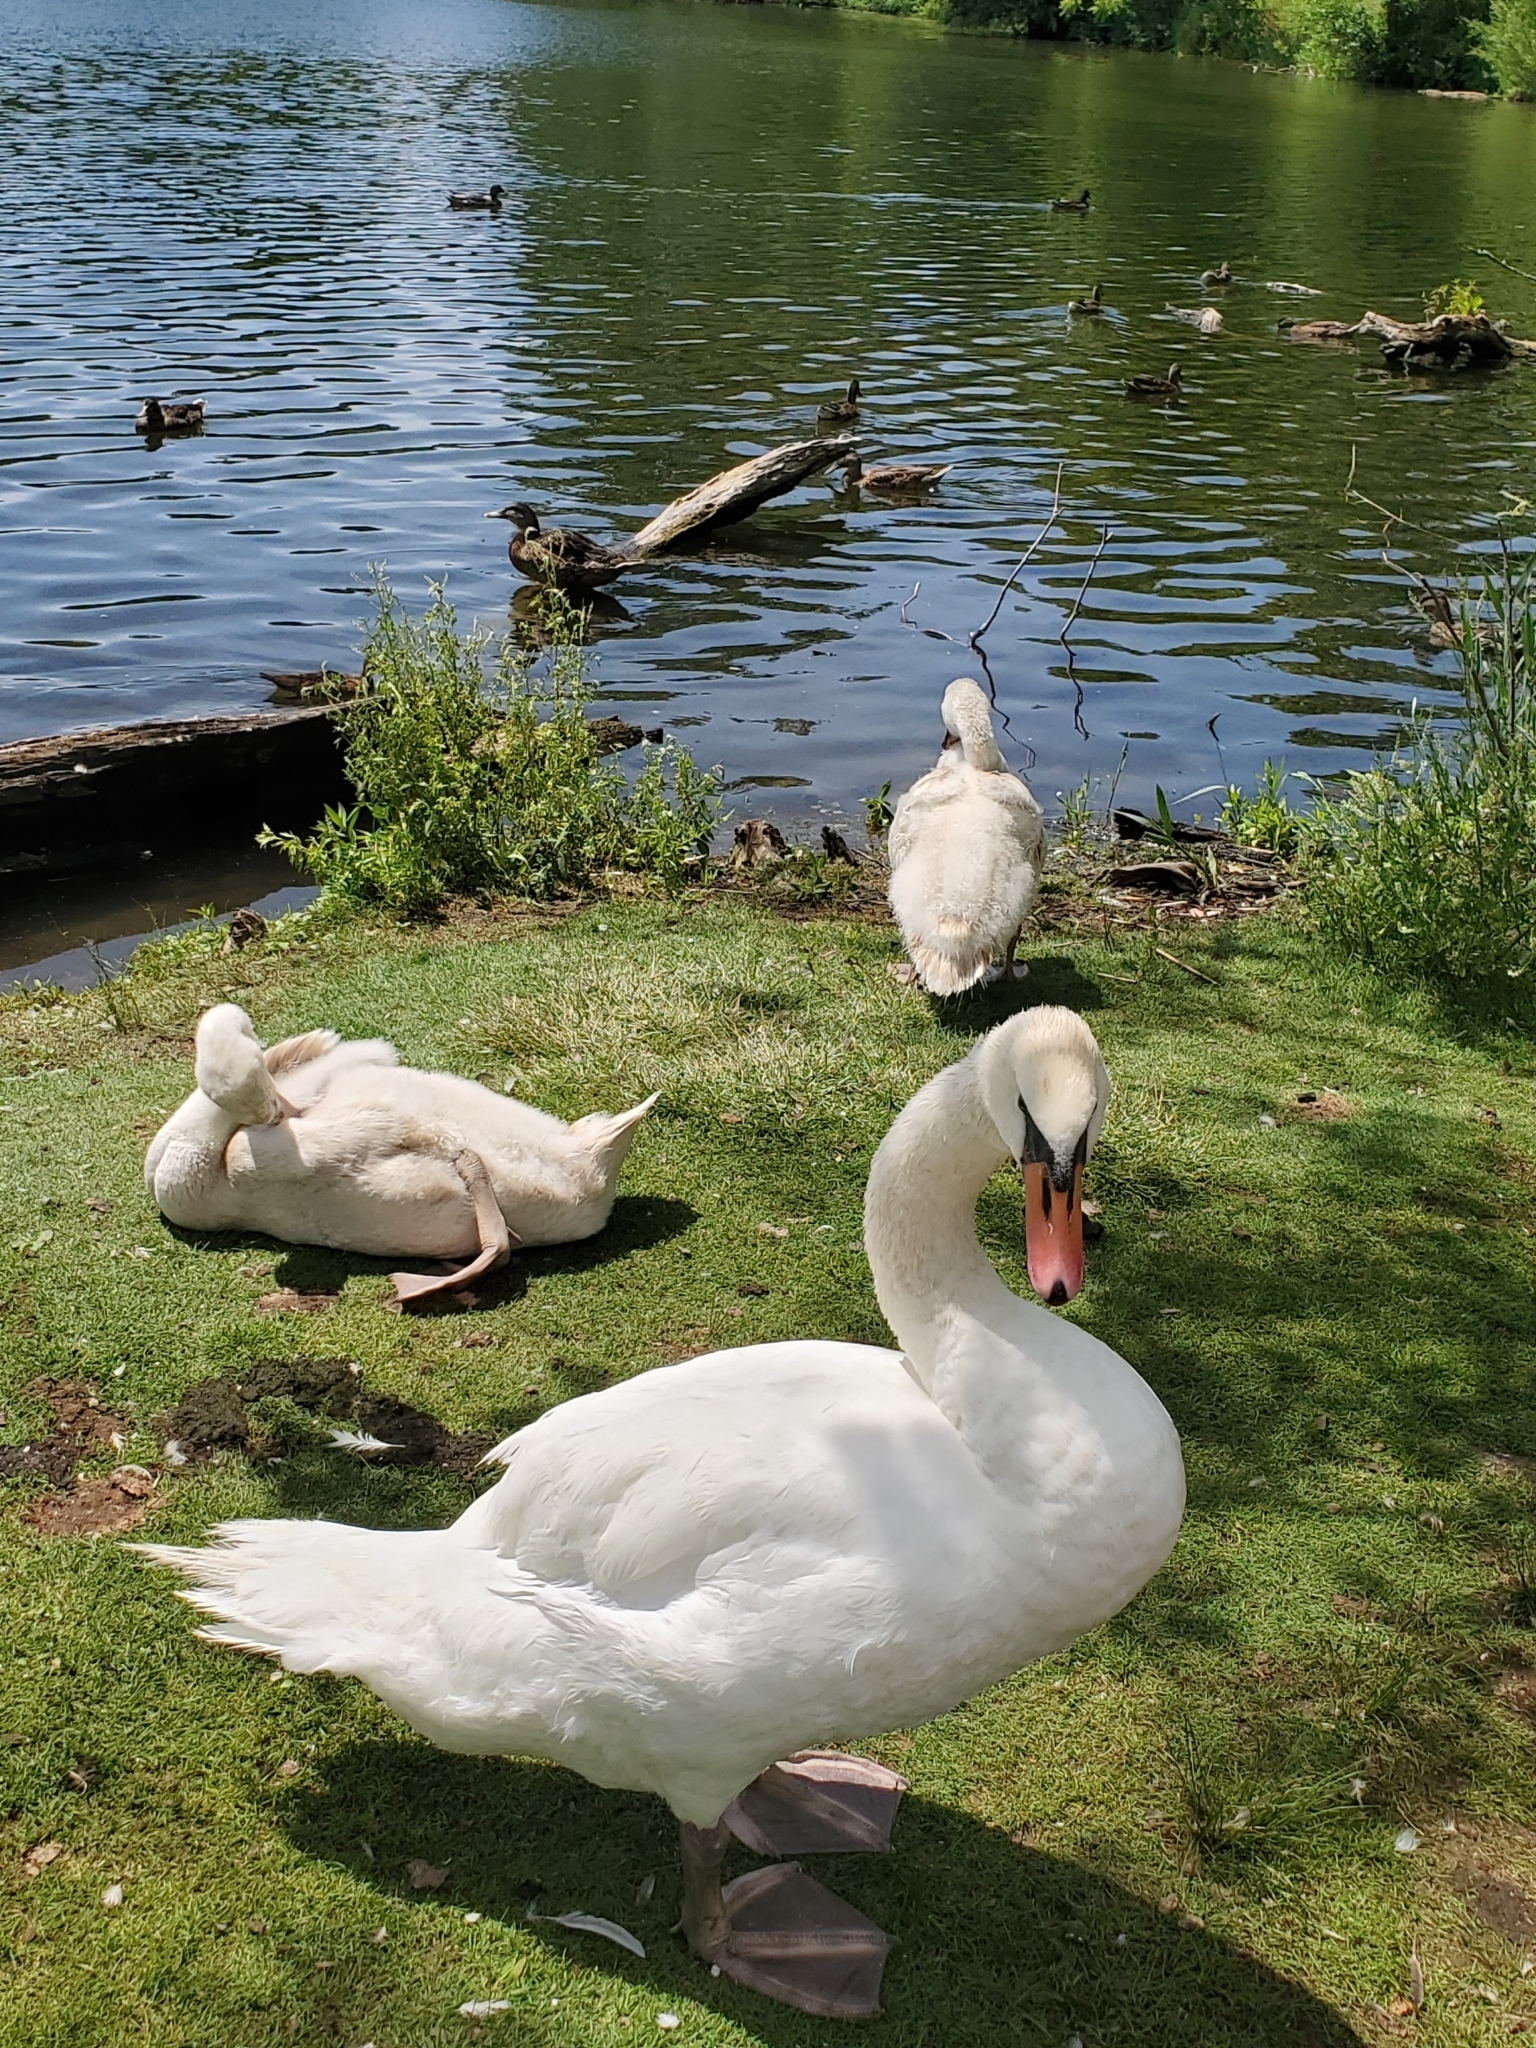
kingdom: Animalia
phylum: Chordata
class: Aves
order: Anseriformes
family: Anatidae
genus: Cygnus
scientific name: Cygnus olor
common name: Mute swan
